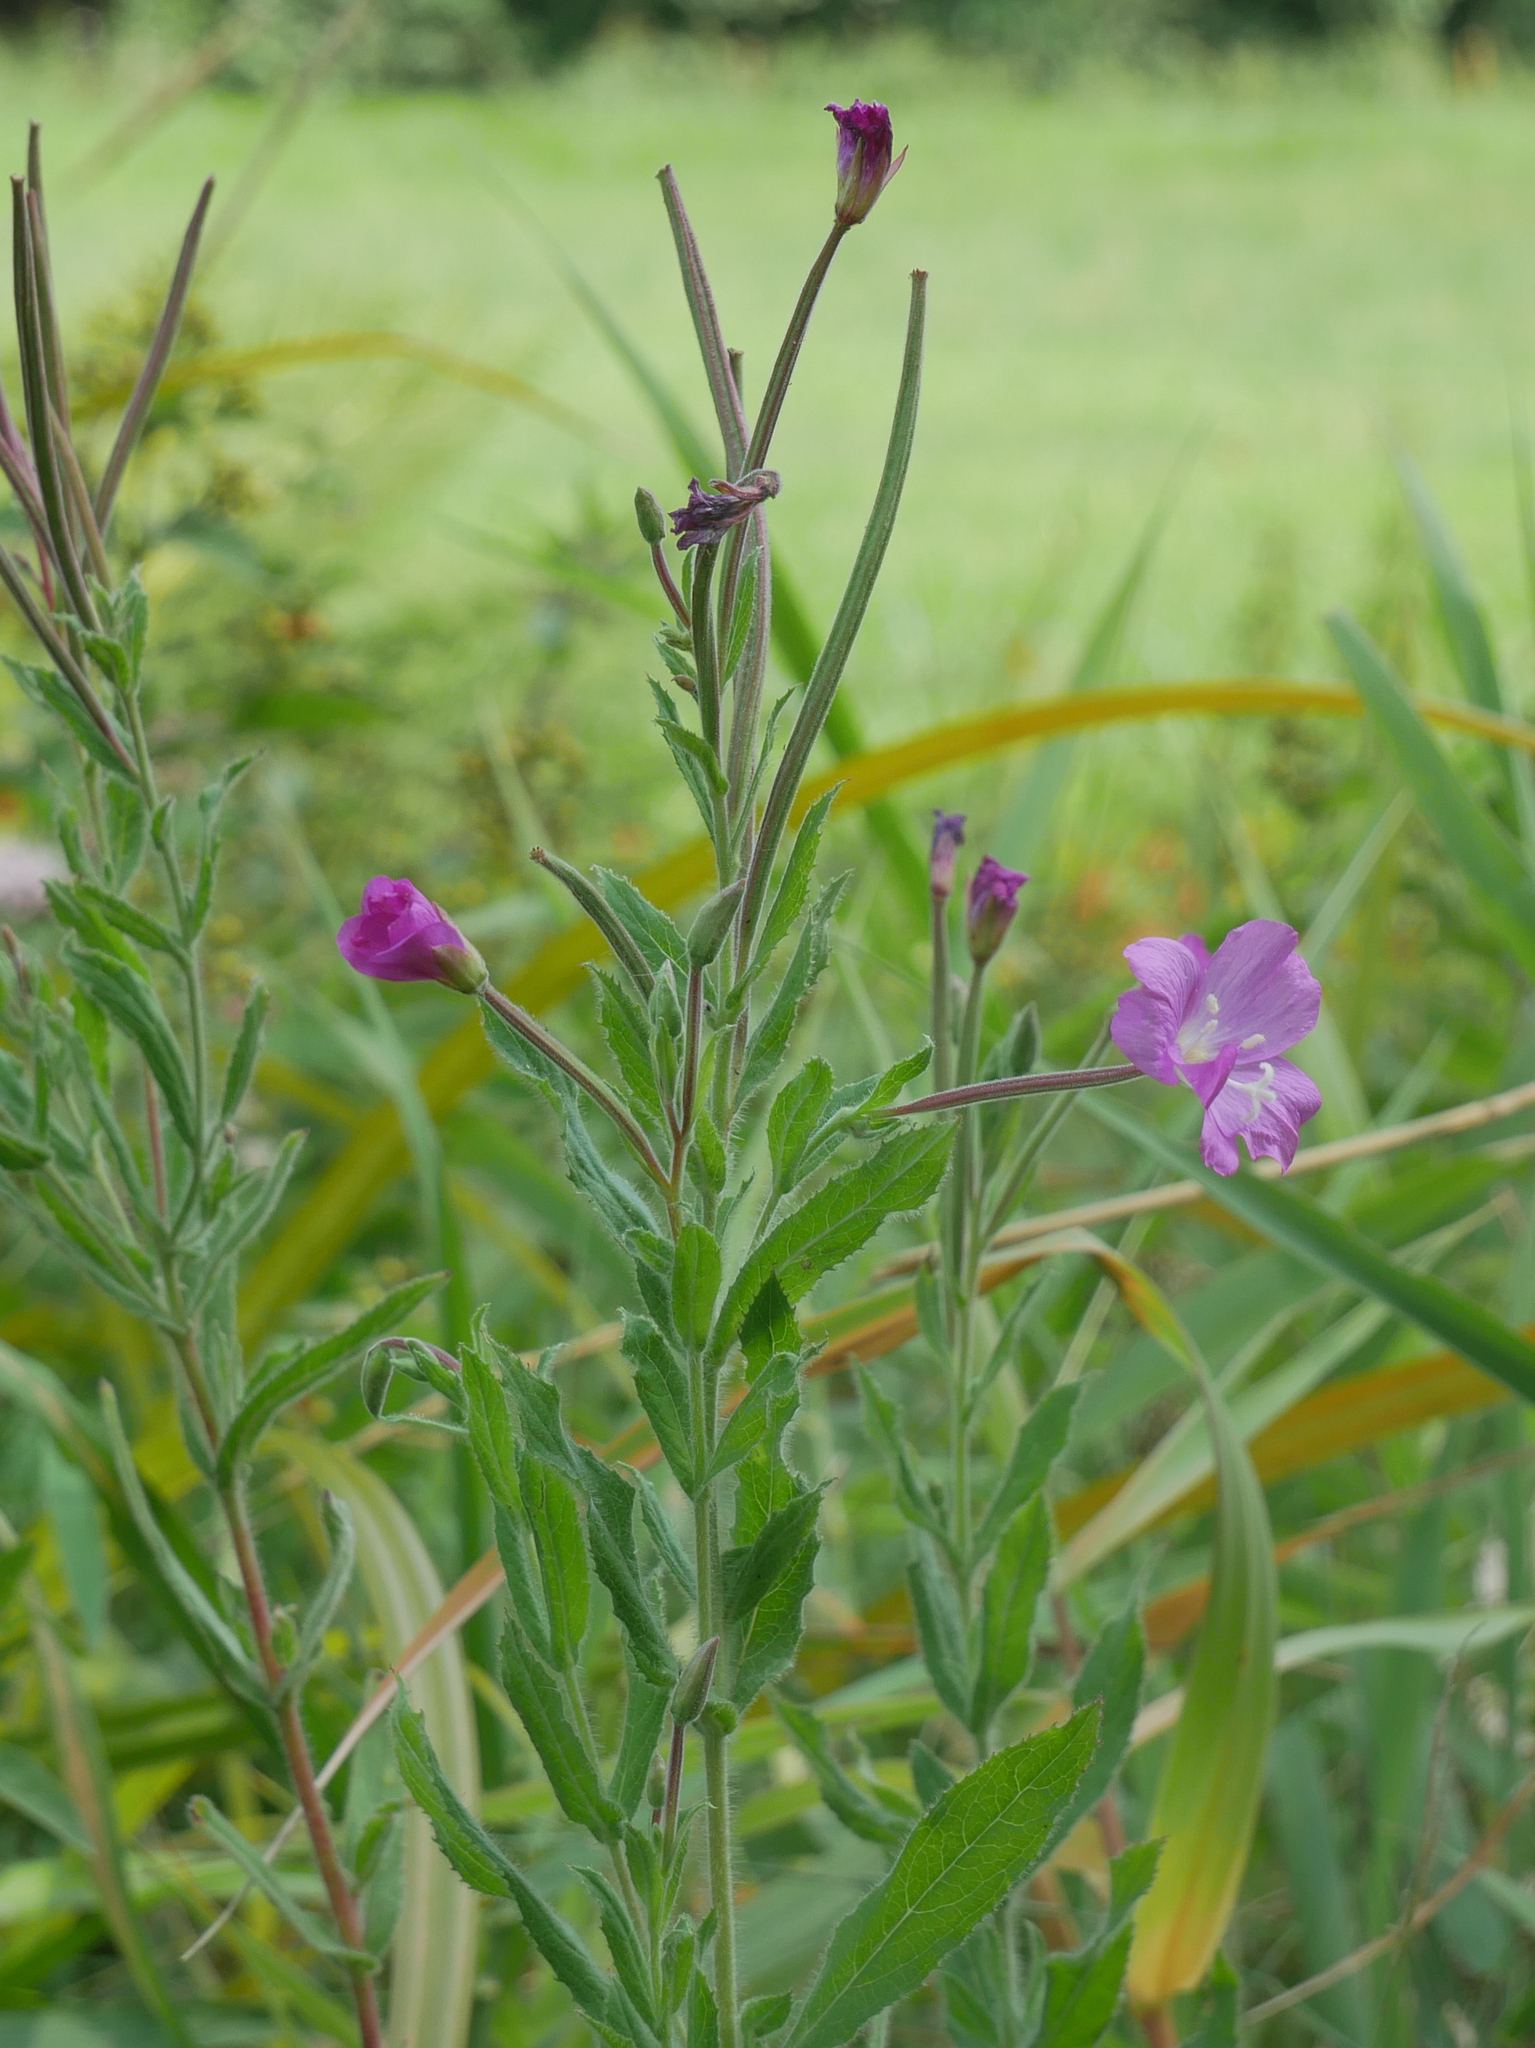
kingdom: Plantae
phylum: Tracheophyta
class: Magnoliopsida
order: Myrtales
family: Onagraceae
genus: Epilobium
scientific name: Epilobium hirsutum
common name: Great willowherb
